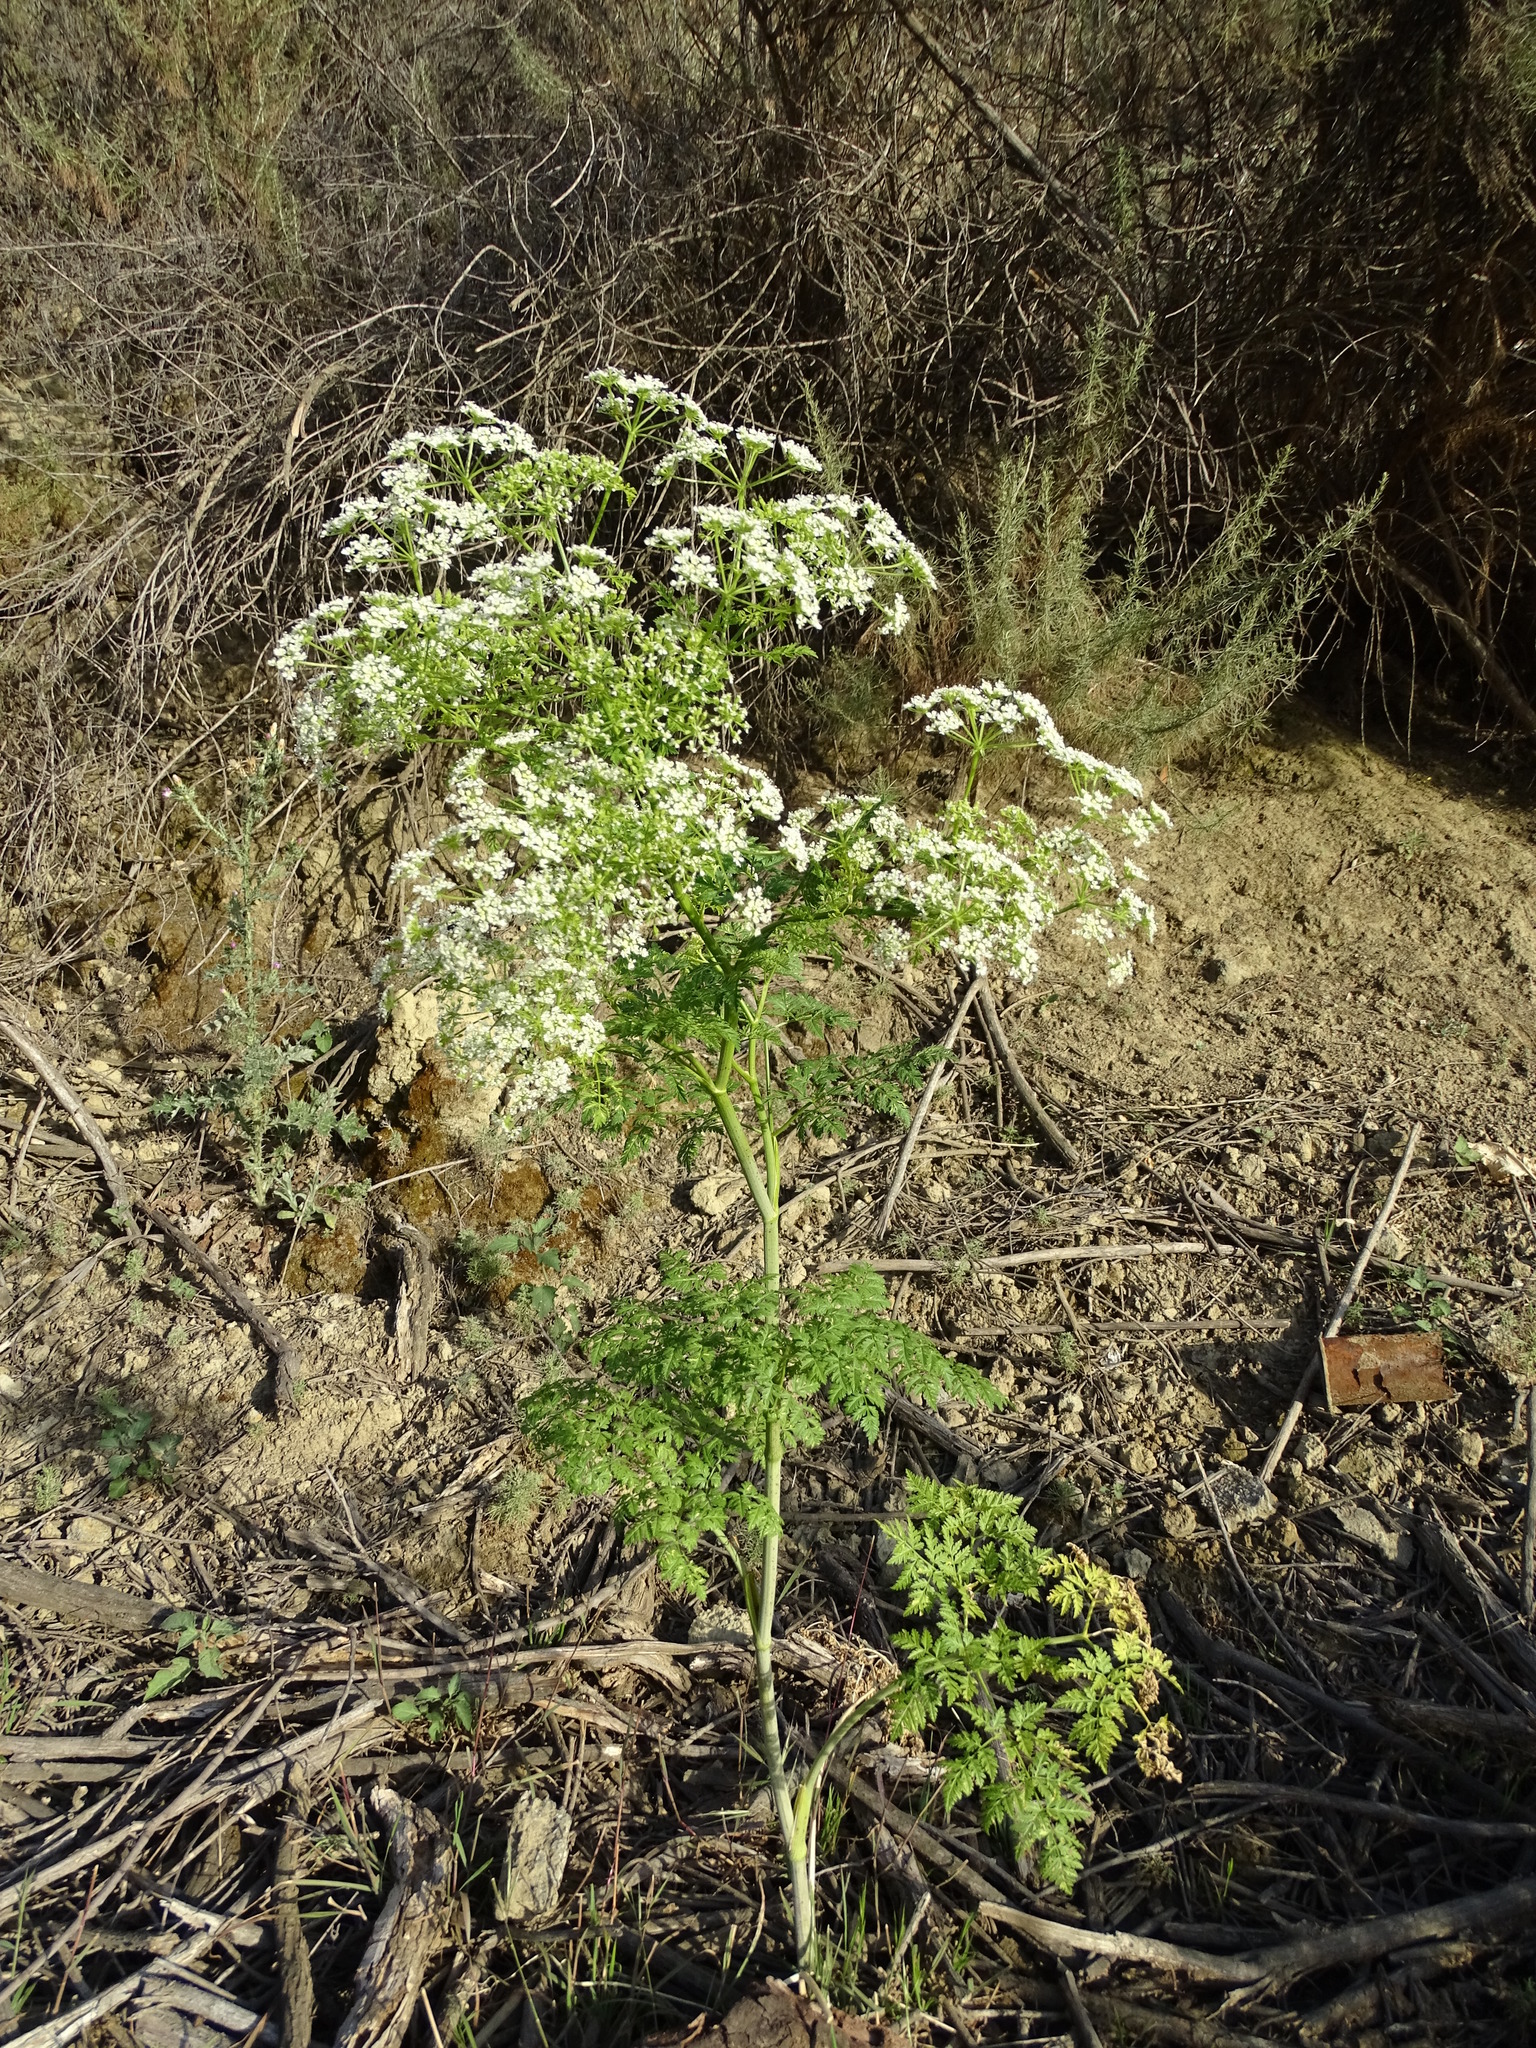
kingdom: Plantae
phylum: Tracheophyta
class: Magnoliopsida
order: Apiales
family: Apiaceae
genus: Conium
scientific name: Conium maculatum
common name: Hemlock
